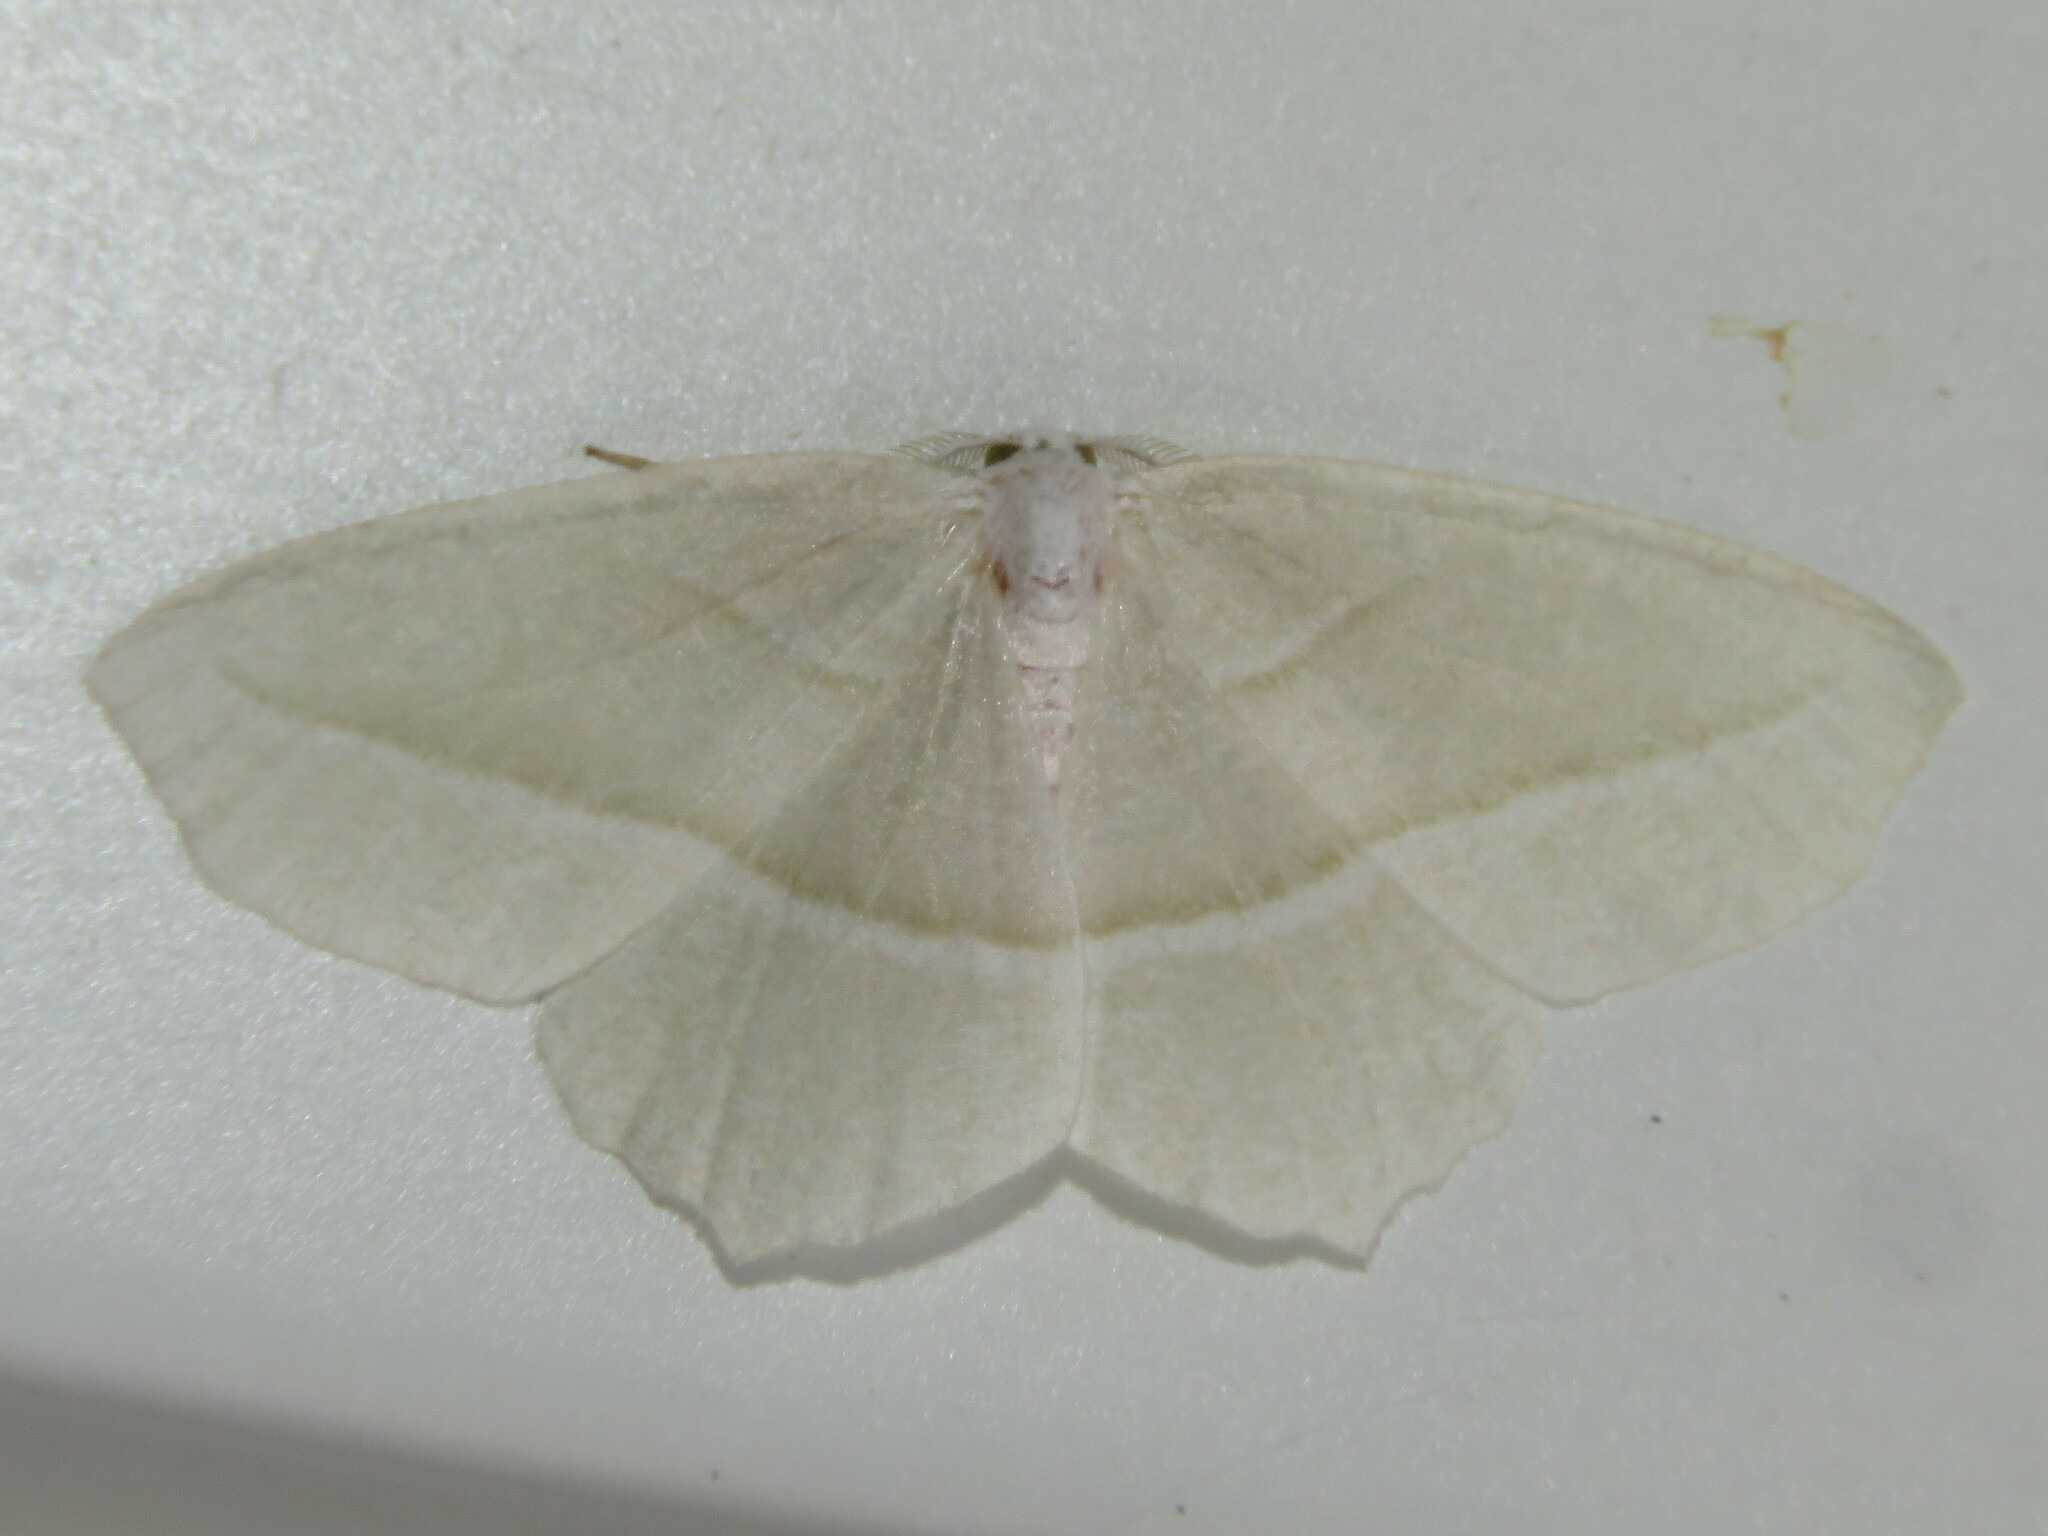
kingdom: Animalia
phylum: Arthropoda
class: Insecta
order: Lepidoptera
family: Geometridae
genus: Campaea
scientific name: Campaea perlata
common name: Fringed looper
